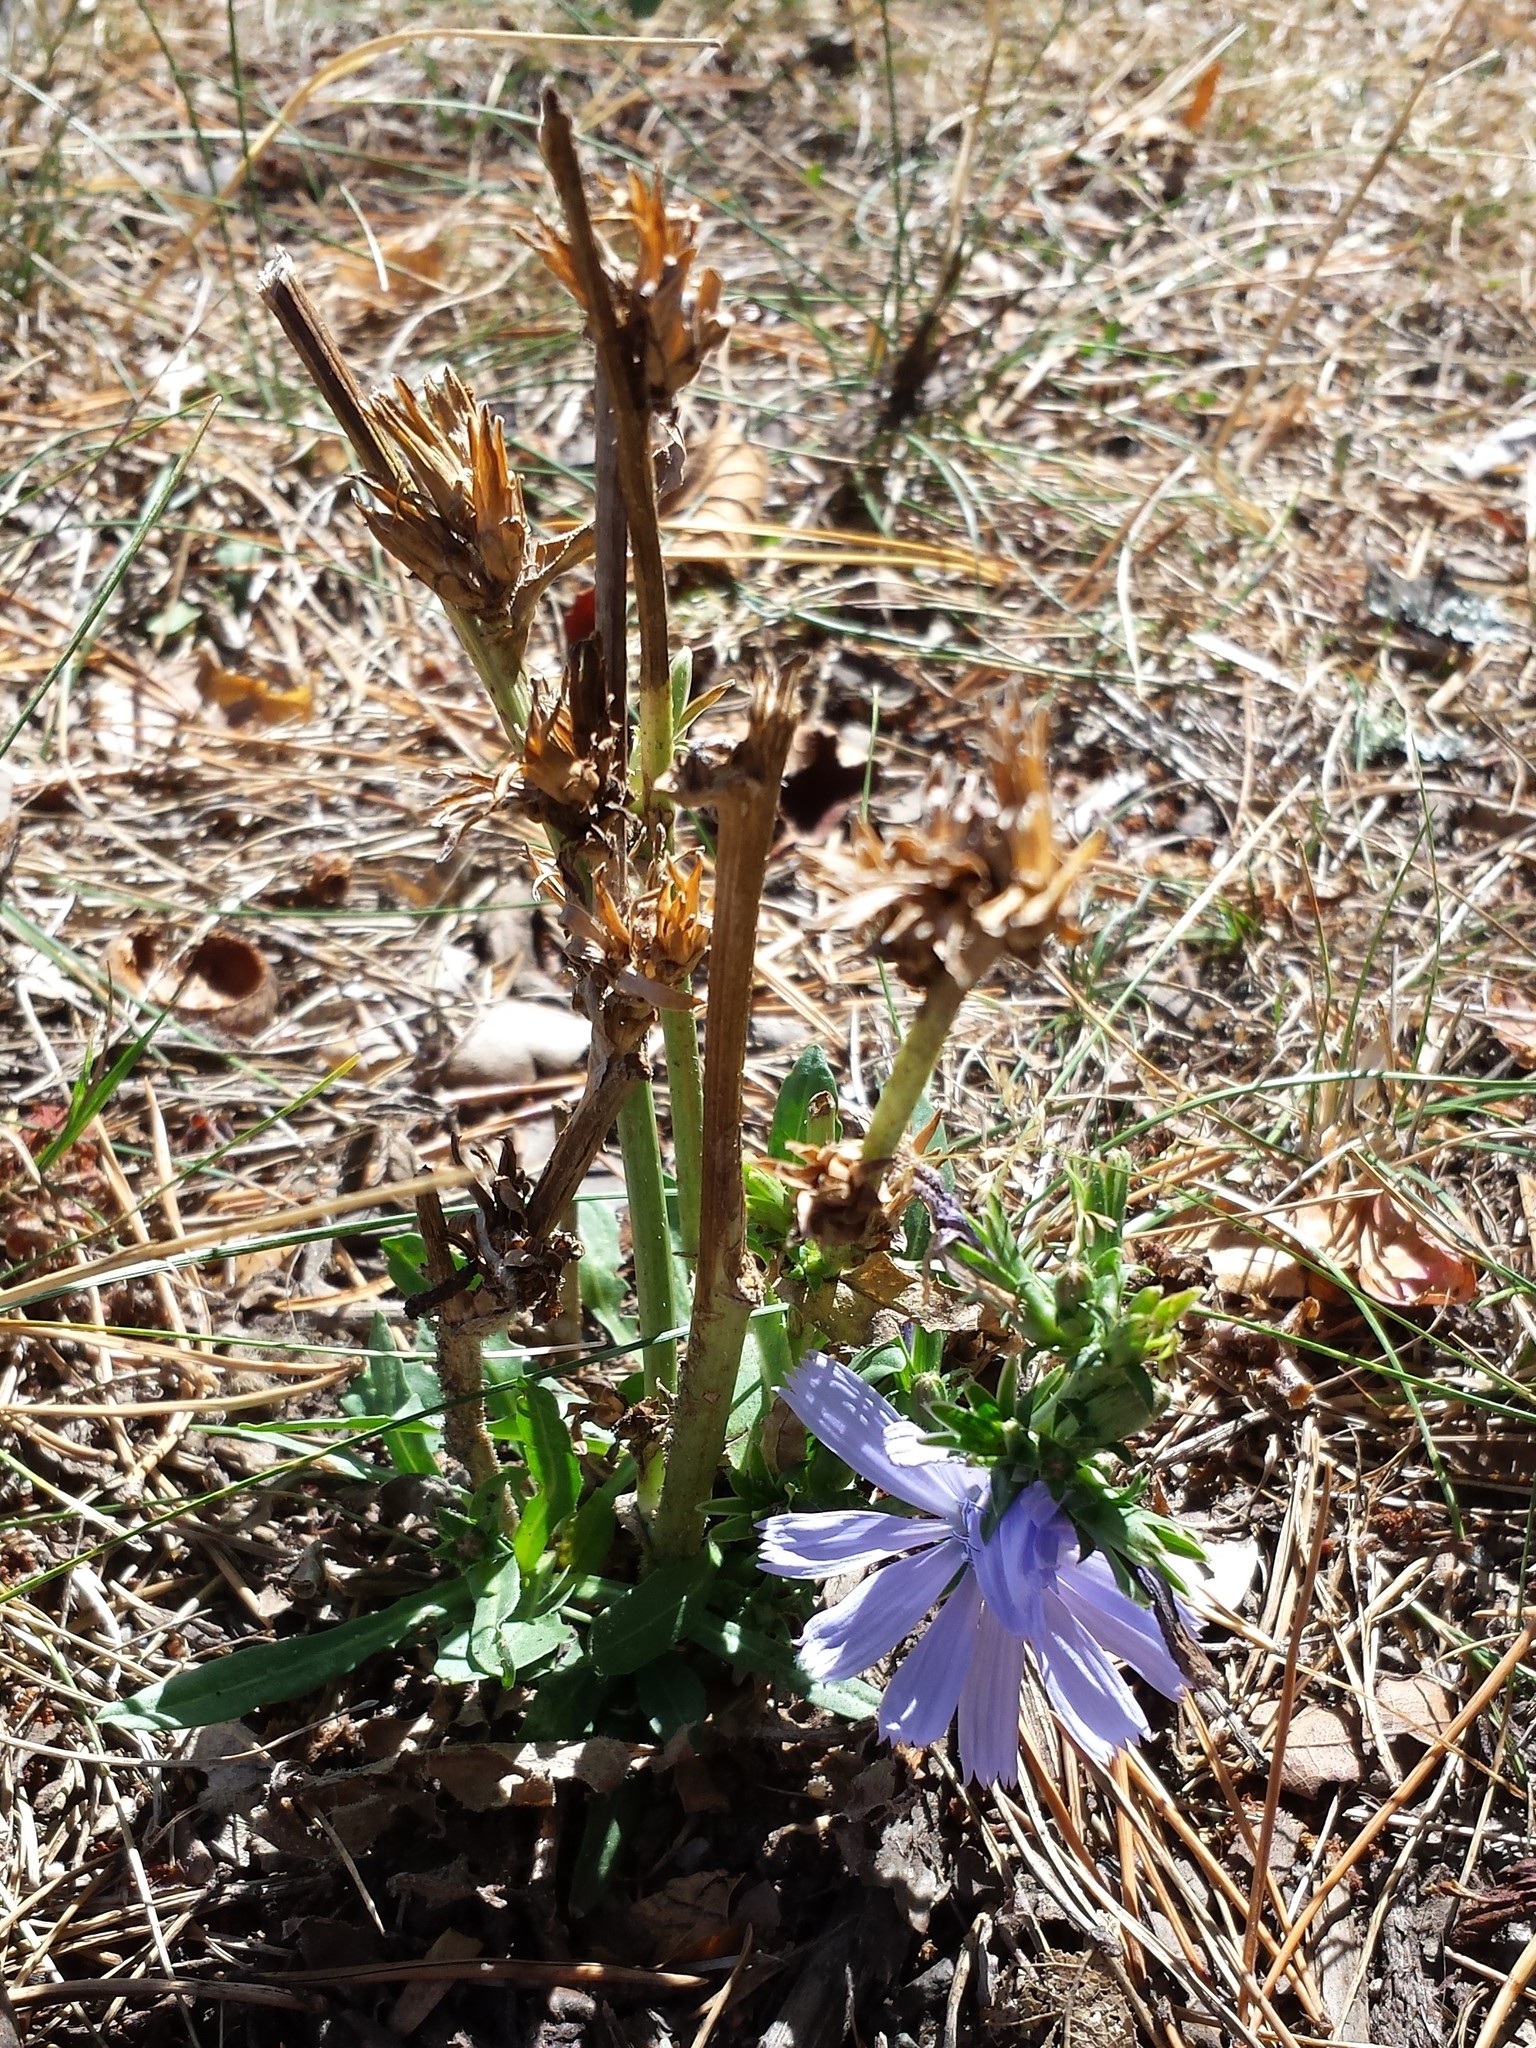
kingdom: Plantae
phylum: Tracheophyta
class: Magnoliopsida
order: Asterales
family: Asteraceae
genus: Cichorium
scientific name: Cichorium intybus
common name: Chicory
